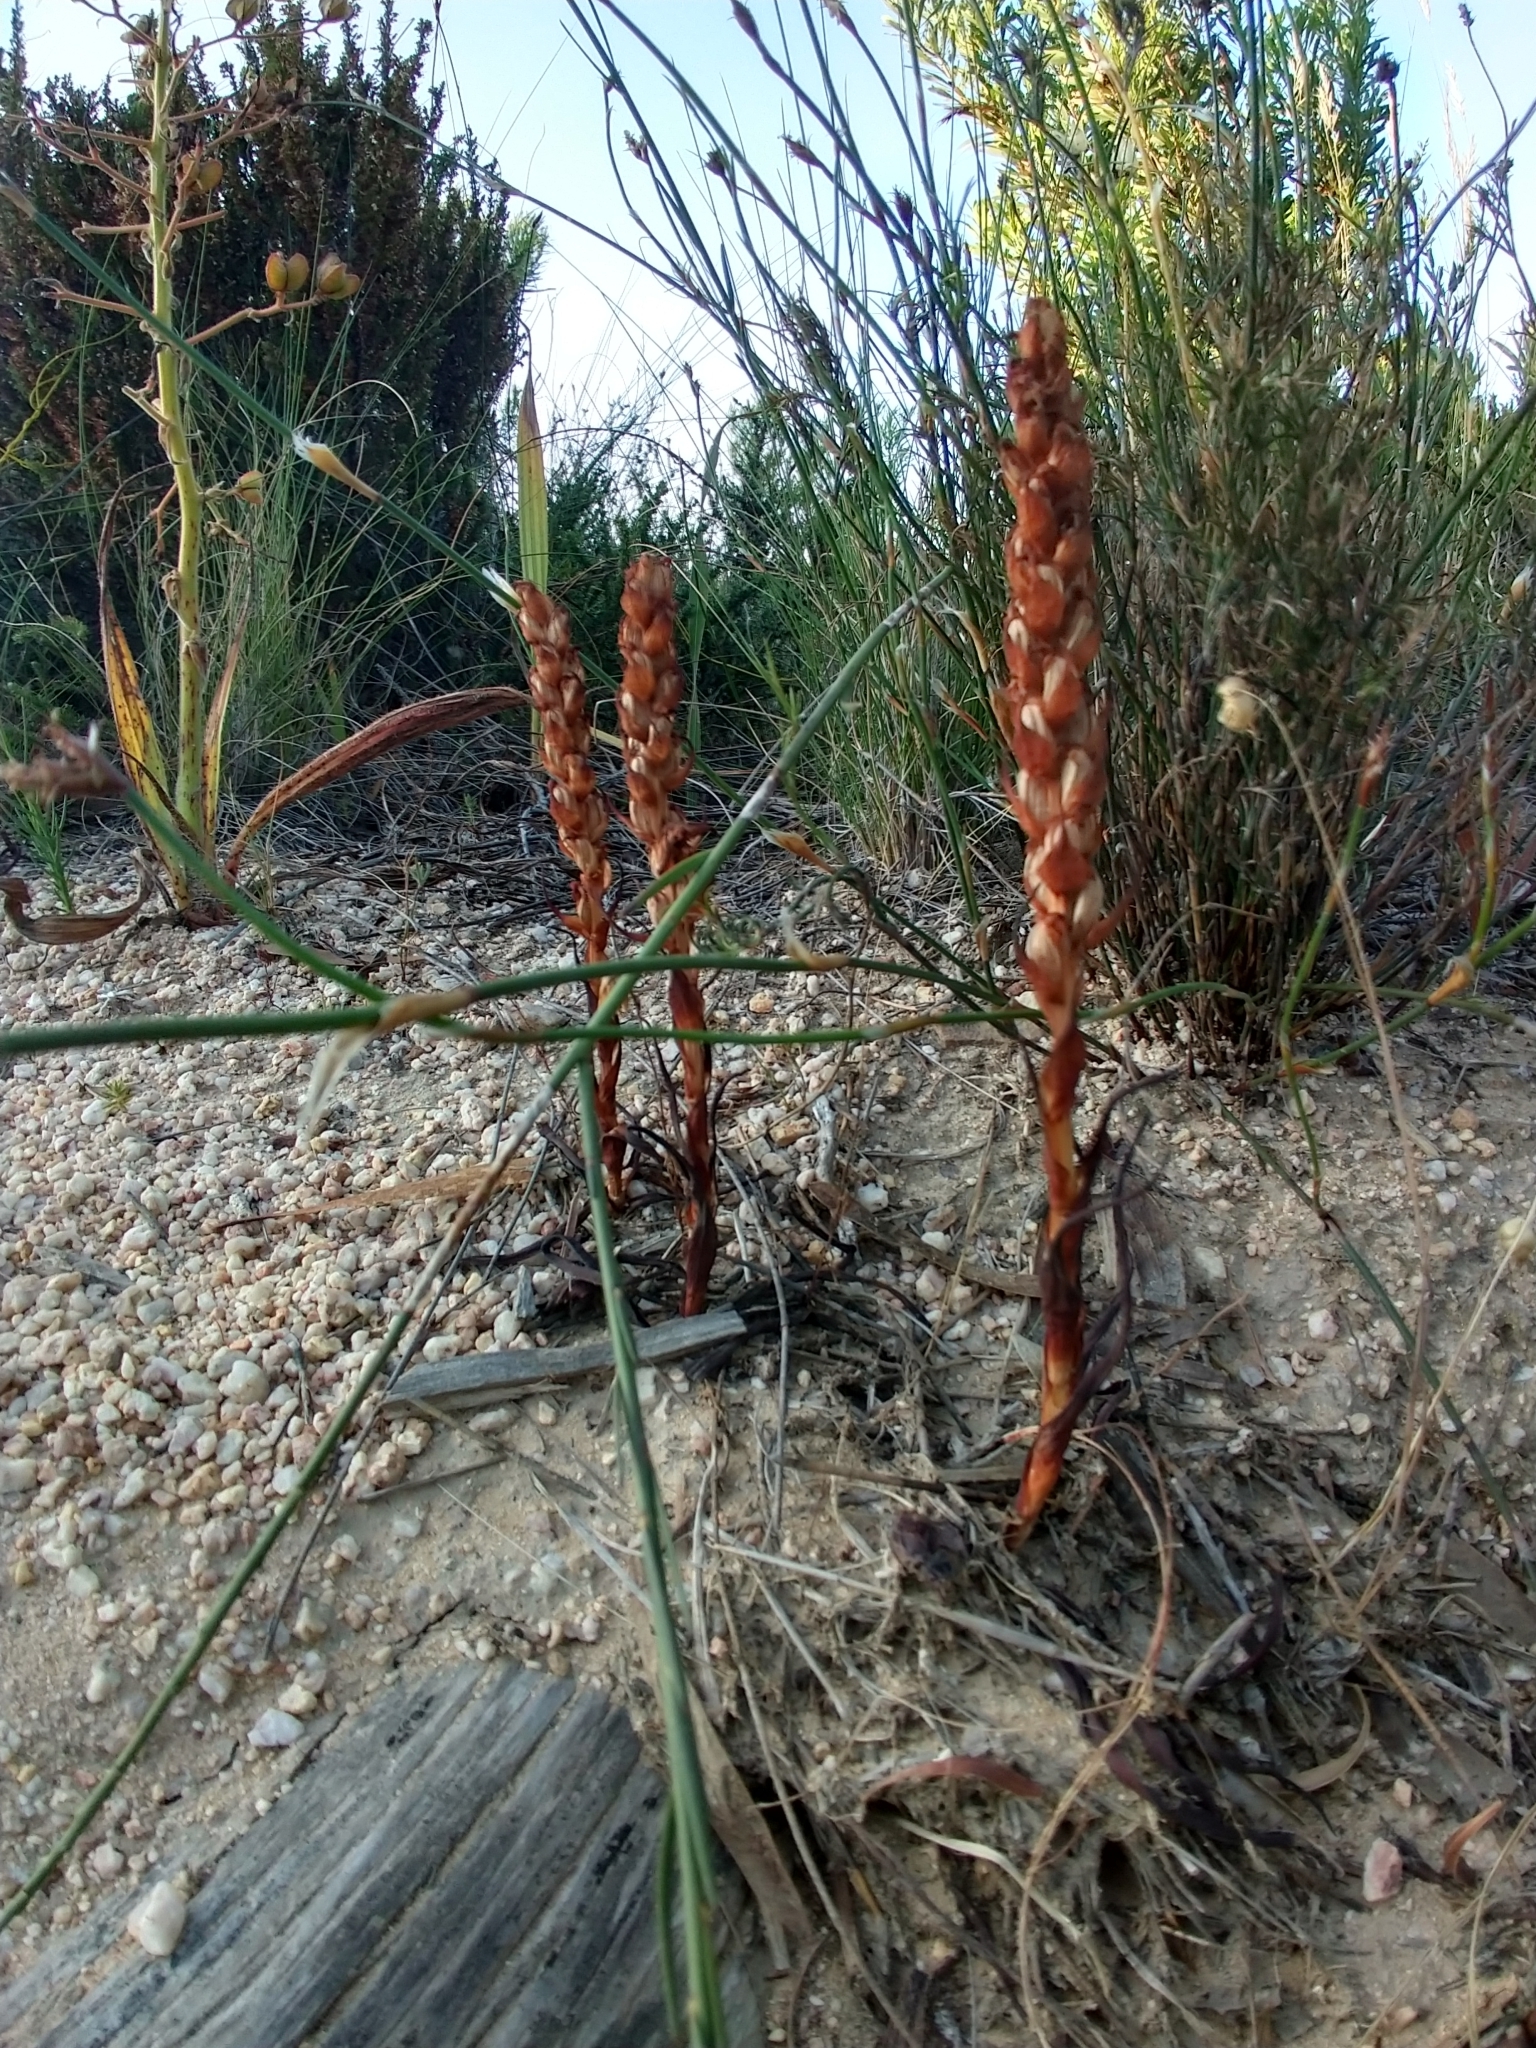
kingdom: Plantae
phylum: Tracheophyta
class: Liliopsida
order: Asparagales
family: Orchidaceae
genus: Disa
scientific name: Disa bracteata
